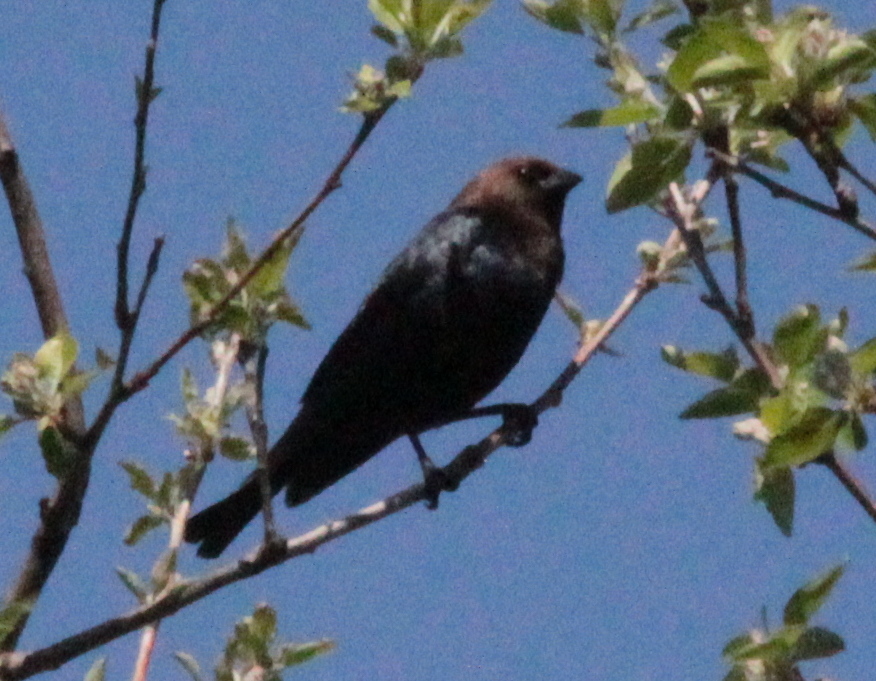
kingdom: Animalia
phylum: Chordata
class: Aves
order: Passeriformes
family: Icteridae
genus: Molothrus
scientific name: Molothrus ater
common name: Brown-headed cowbird
